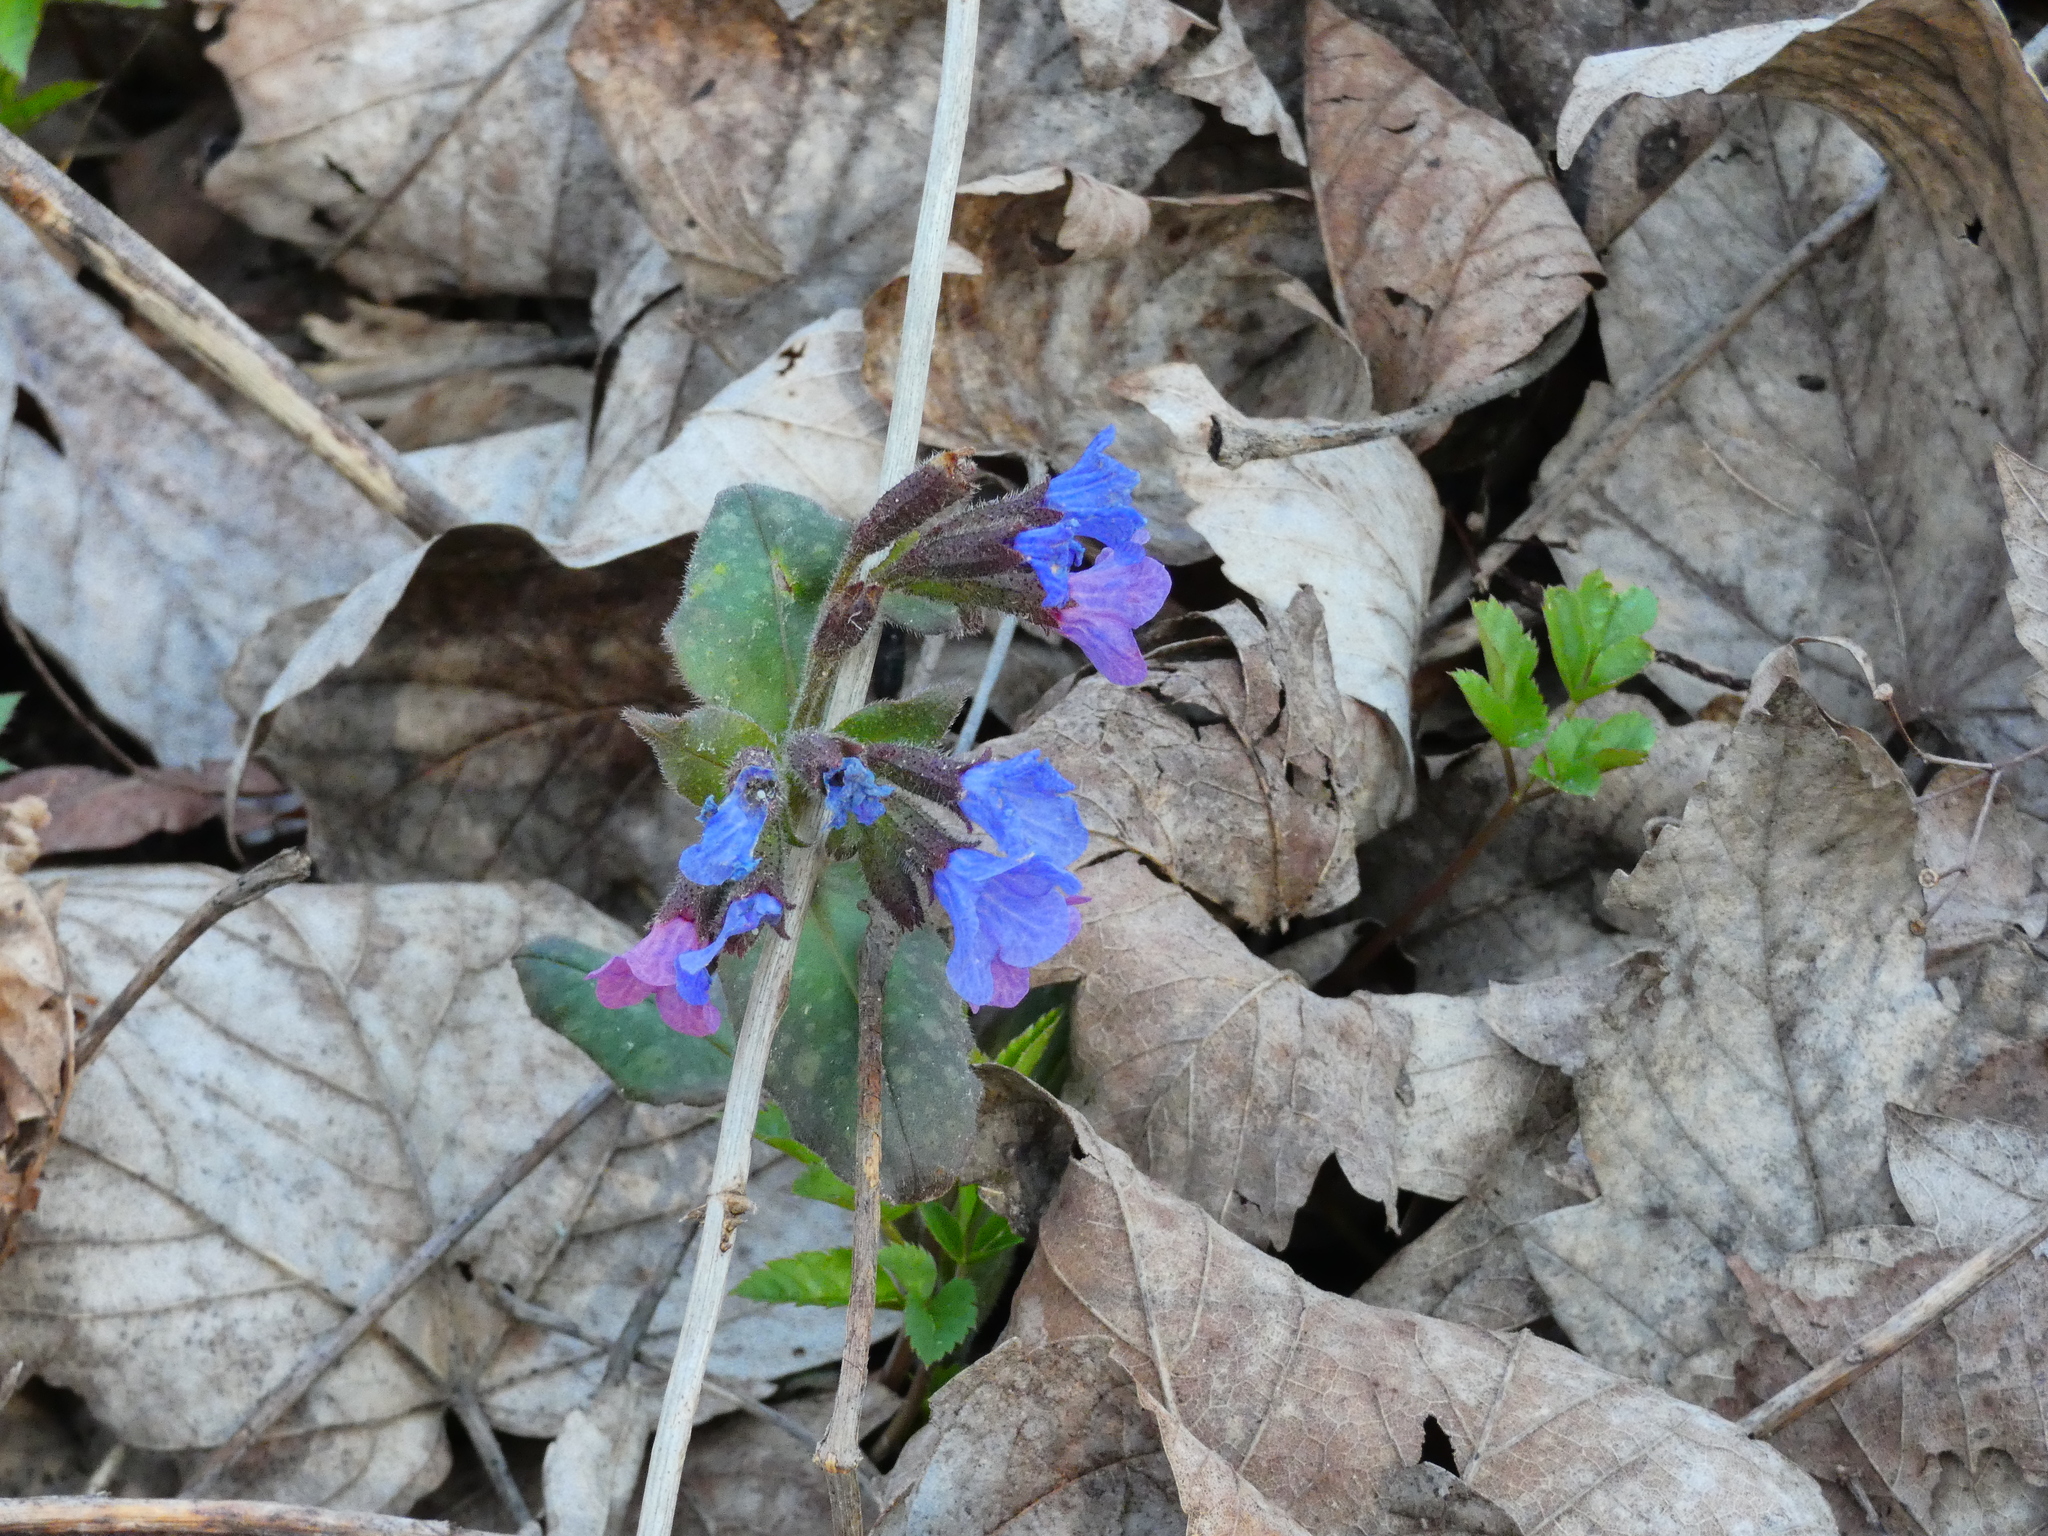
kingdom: Plantae
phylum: Tracheophyta
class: Magnoliopsida
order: Boraginales
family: Boraginaceae
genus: Pulmonaria
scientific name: Pulmonaria officinalis
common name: Lungwort
